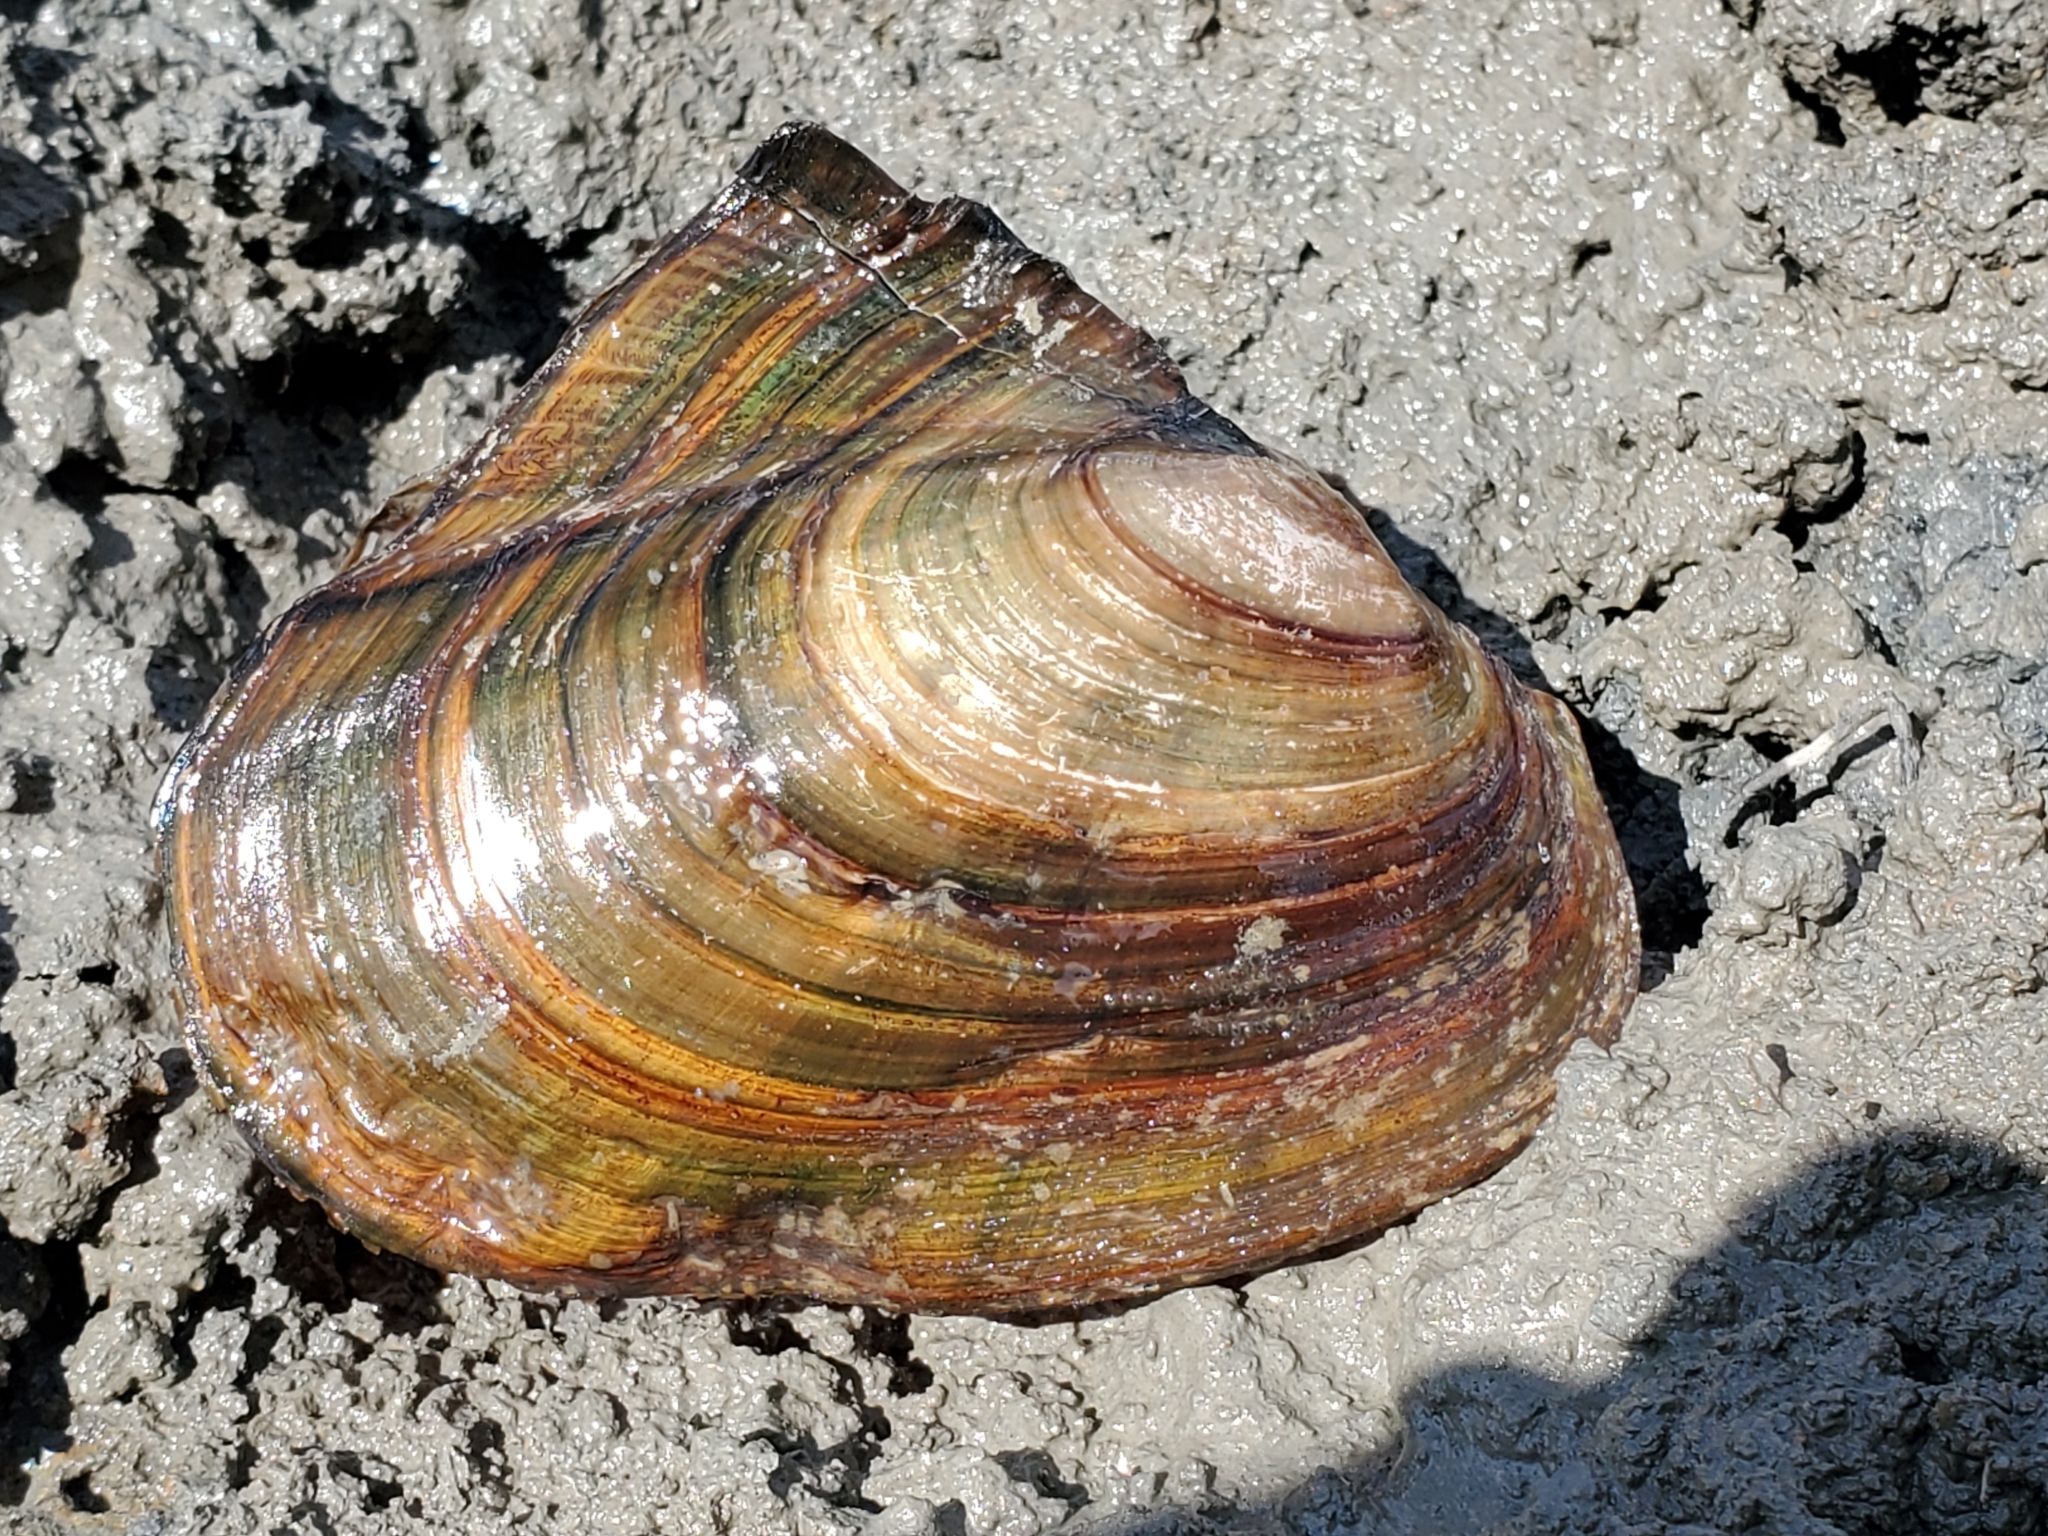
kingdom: Animalia
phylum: Mollusca
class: Bivalvia
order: Unionida
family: Unionidae
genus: Potamilus
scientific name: Potamilus alatus
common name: Pink heelsplitter
